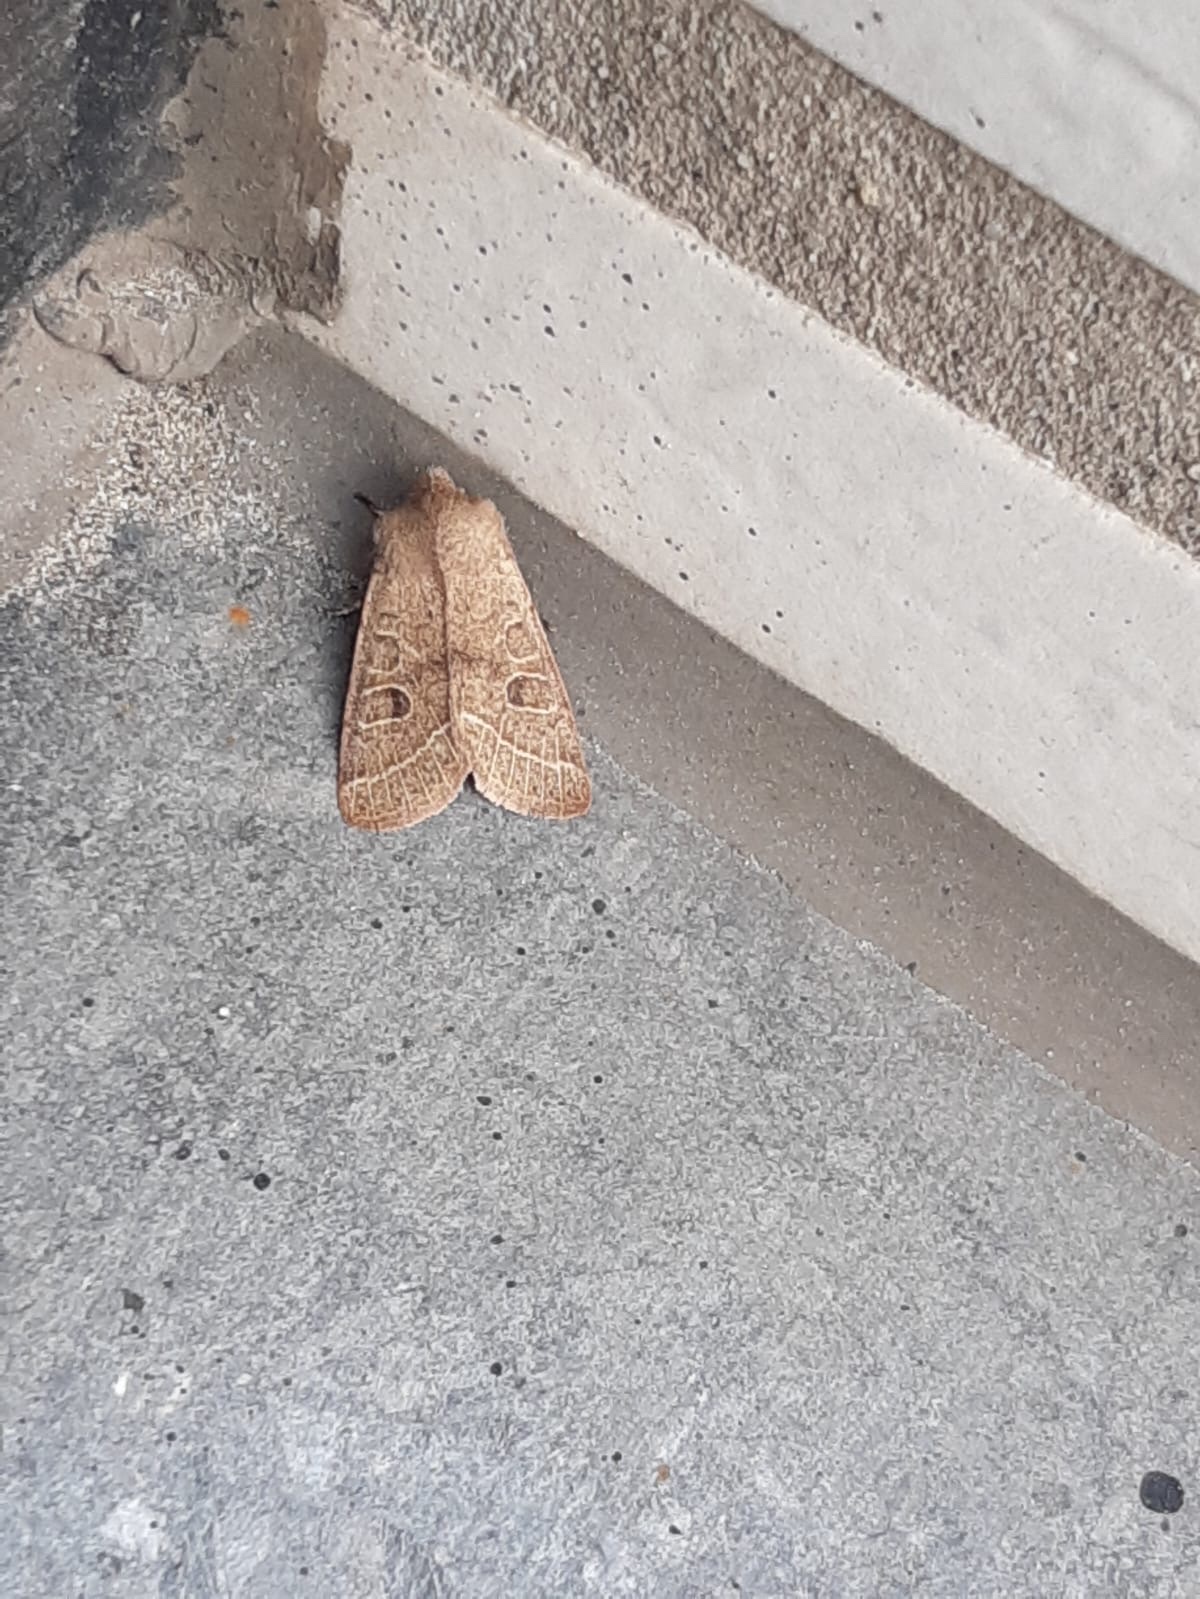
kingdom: Animalia
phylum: Arthropoda
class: Insecta
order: Lepidoptera
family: Noctuidae
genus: Orthosia
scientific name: Orthosia cerasi
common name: Common quaker
